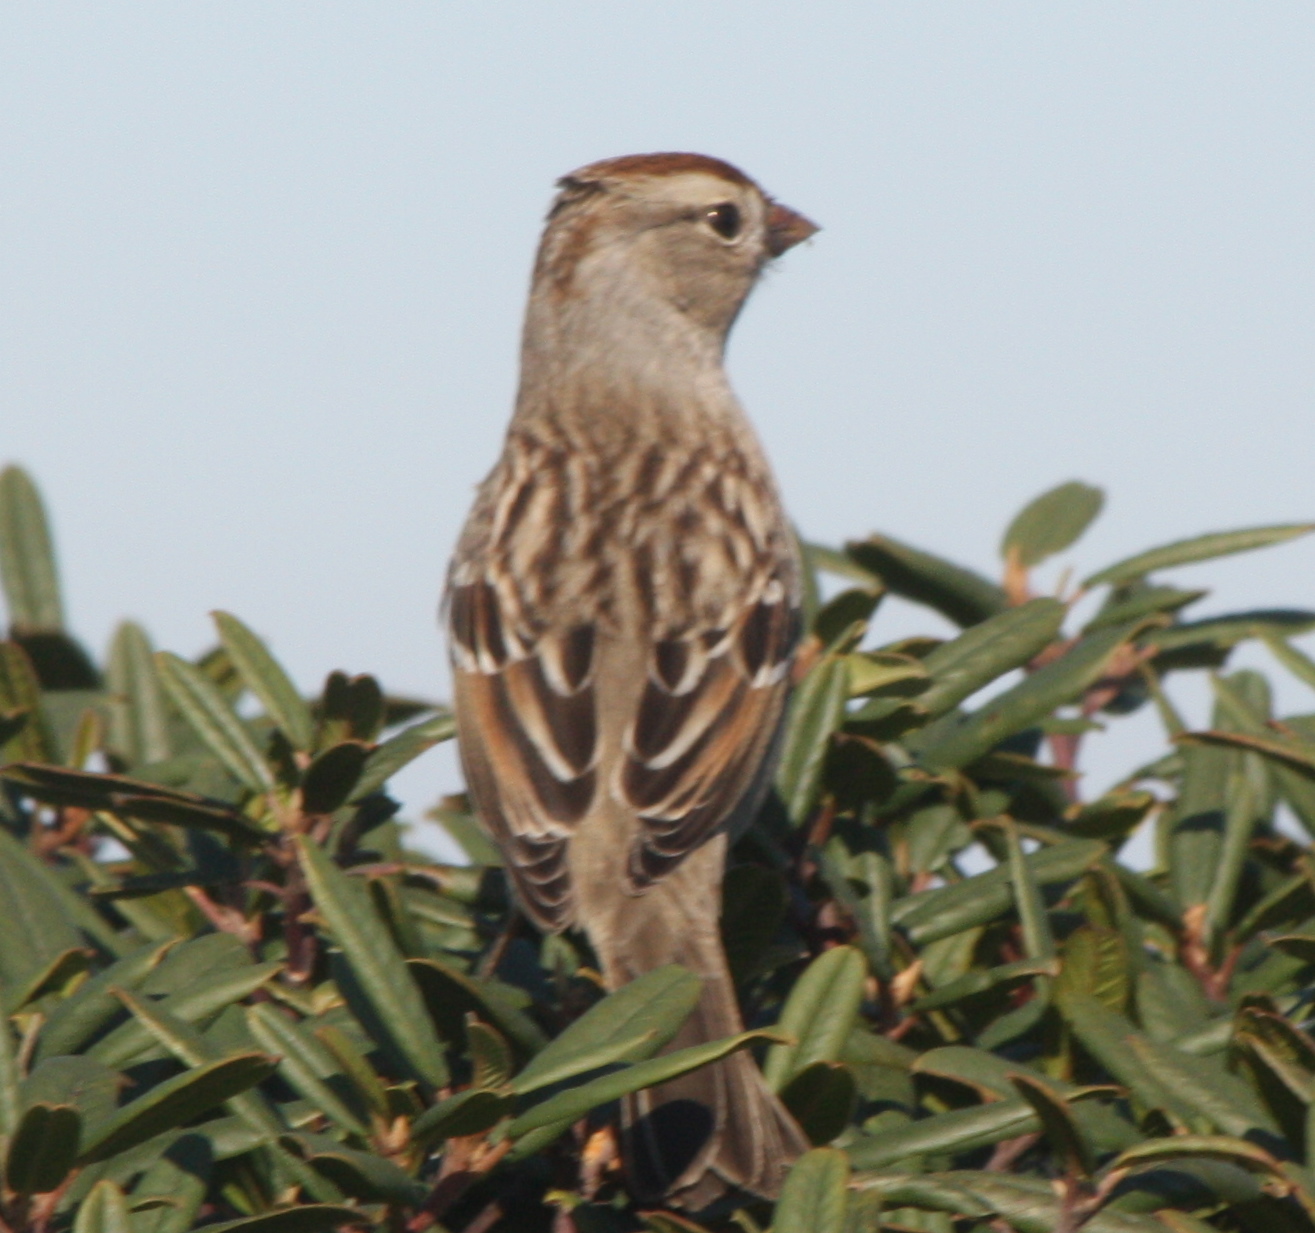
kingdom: Animalia
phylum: Chordata
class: Aves
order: Passeriformes
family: Passerellidae
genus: Zonotrichia
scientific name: Zonotrichia leucophrys
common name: White-crowned sparrow
